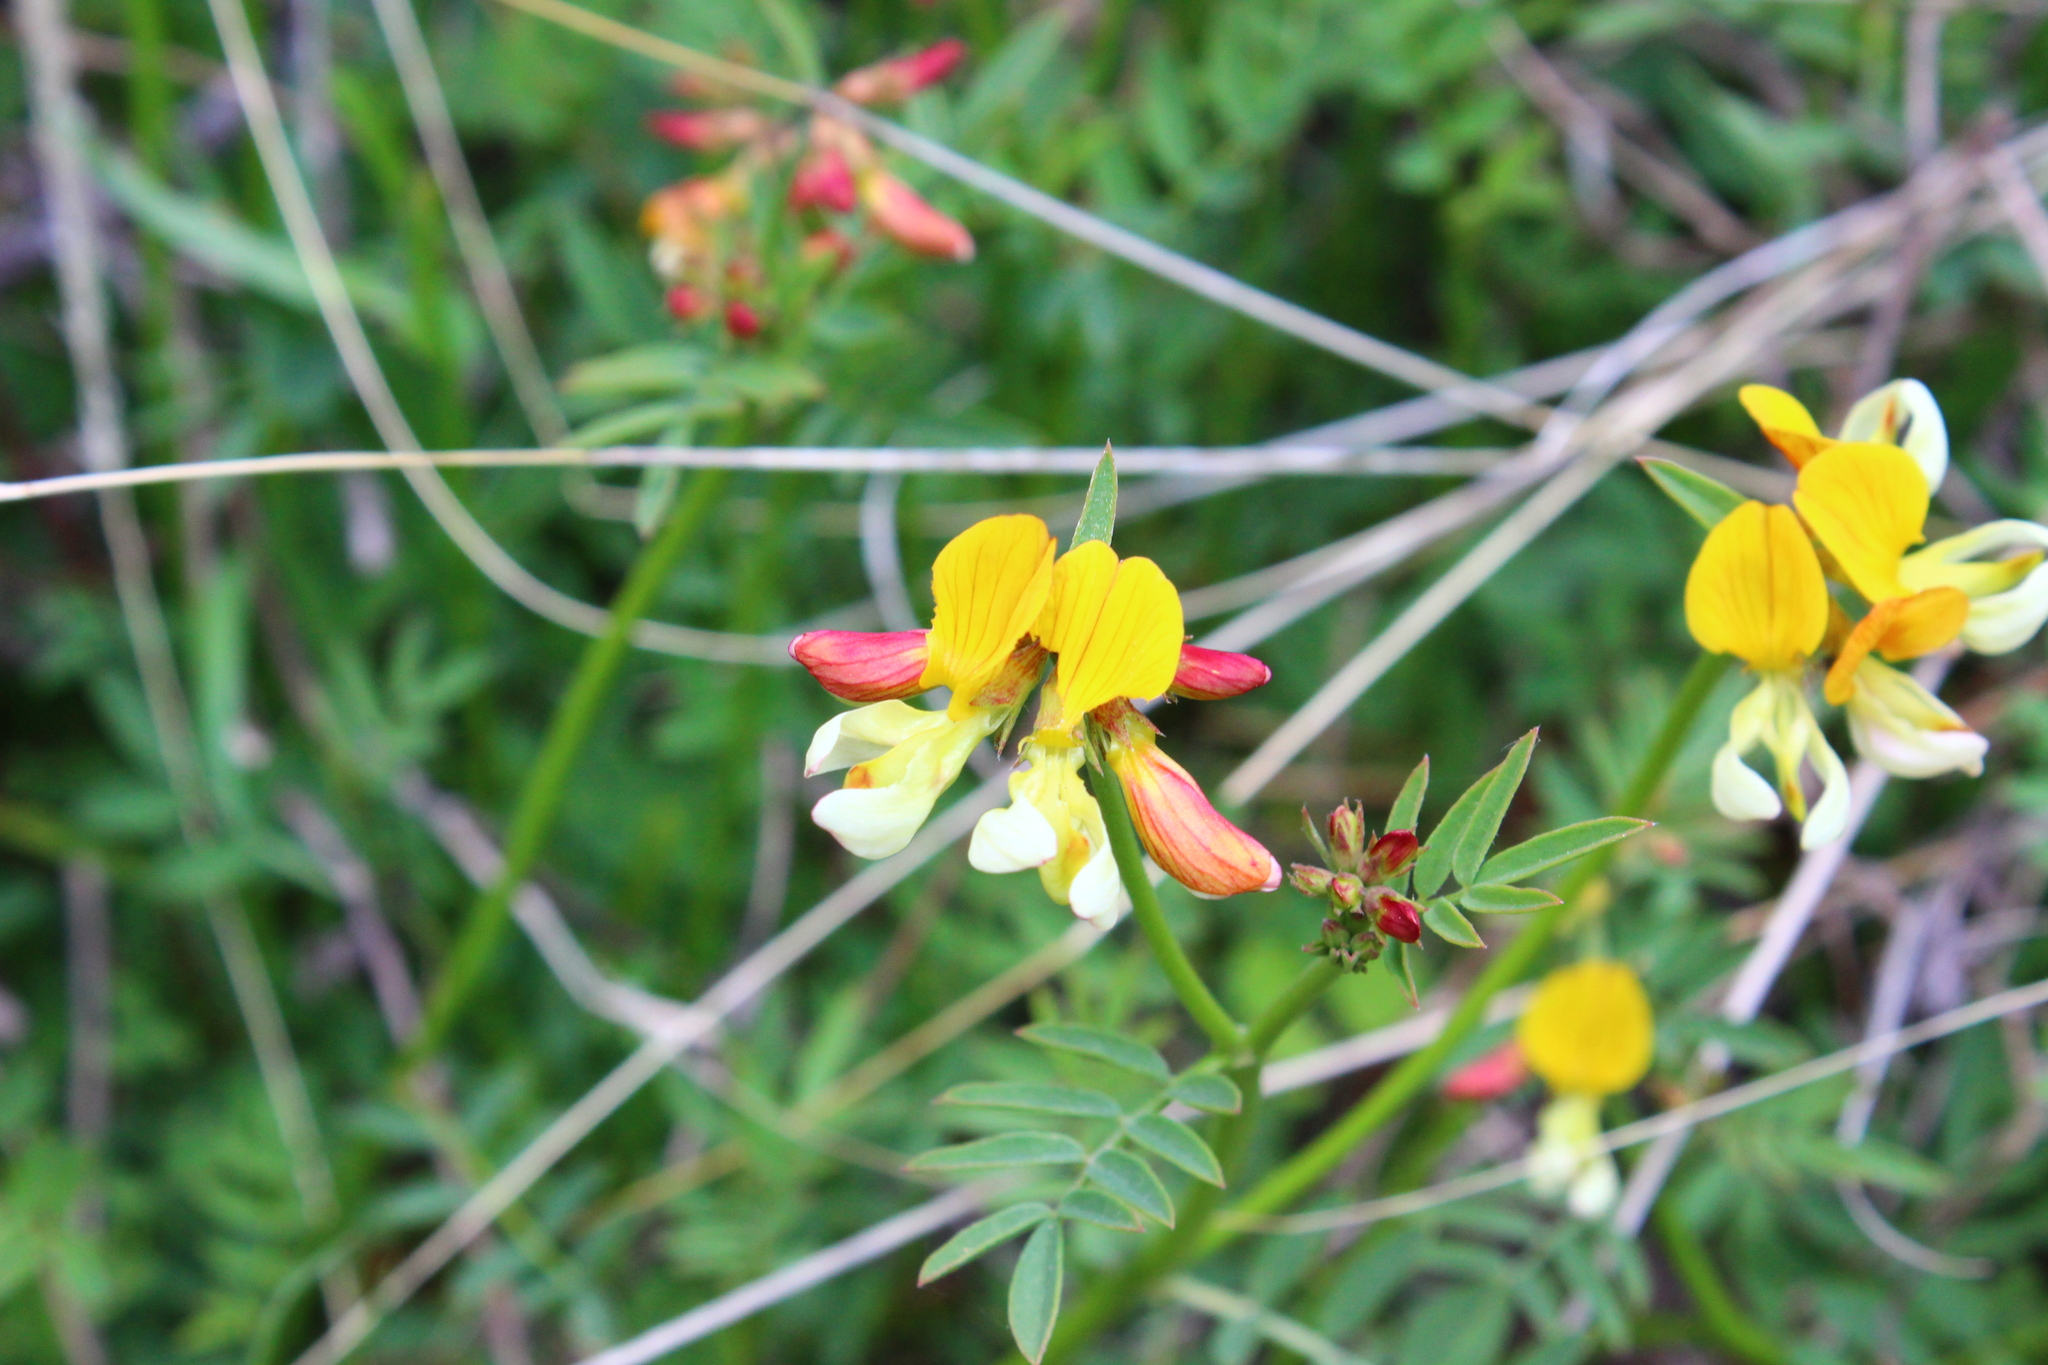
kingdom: Plantae
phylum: Tracheophyta
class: Magnoliopsida
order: Fabales
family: Fabaceae
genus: Hosackia
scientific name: Hosackia oblongifolia
